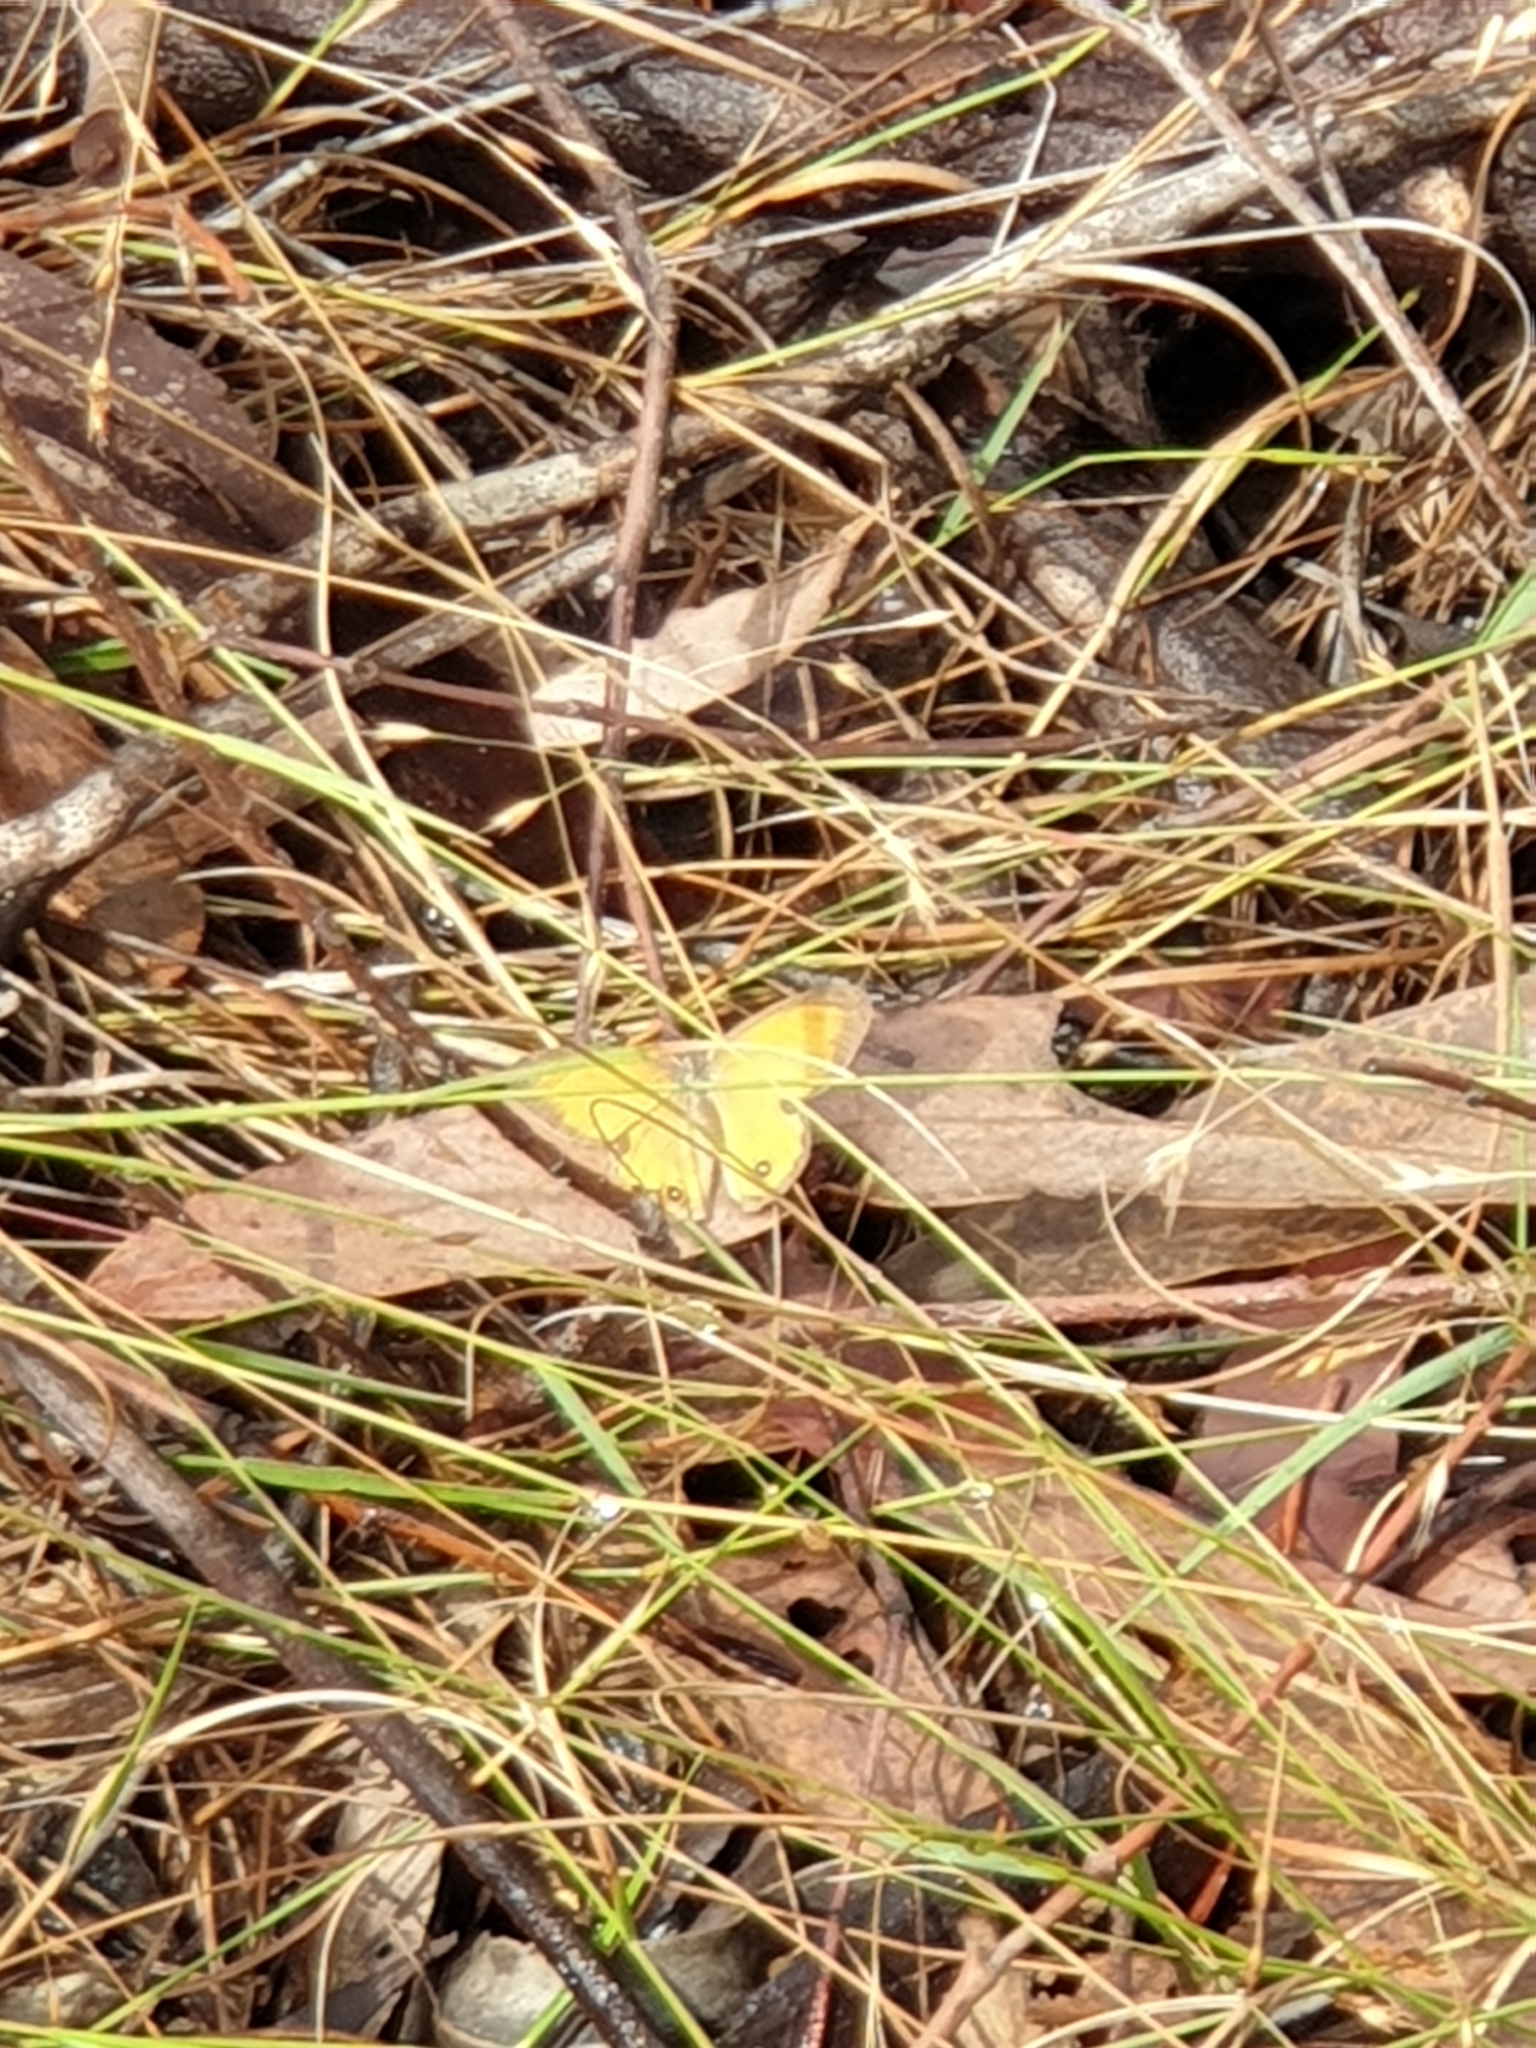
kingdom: Animalia
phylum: Arthropoda
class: Insecta
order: Lepidoptera
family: Nymphalidae
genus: Hypocysta
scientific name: Hypocysta adiante
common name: Orange ringlet
